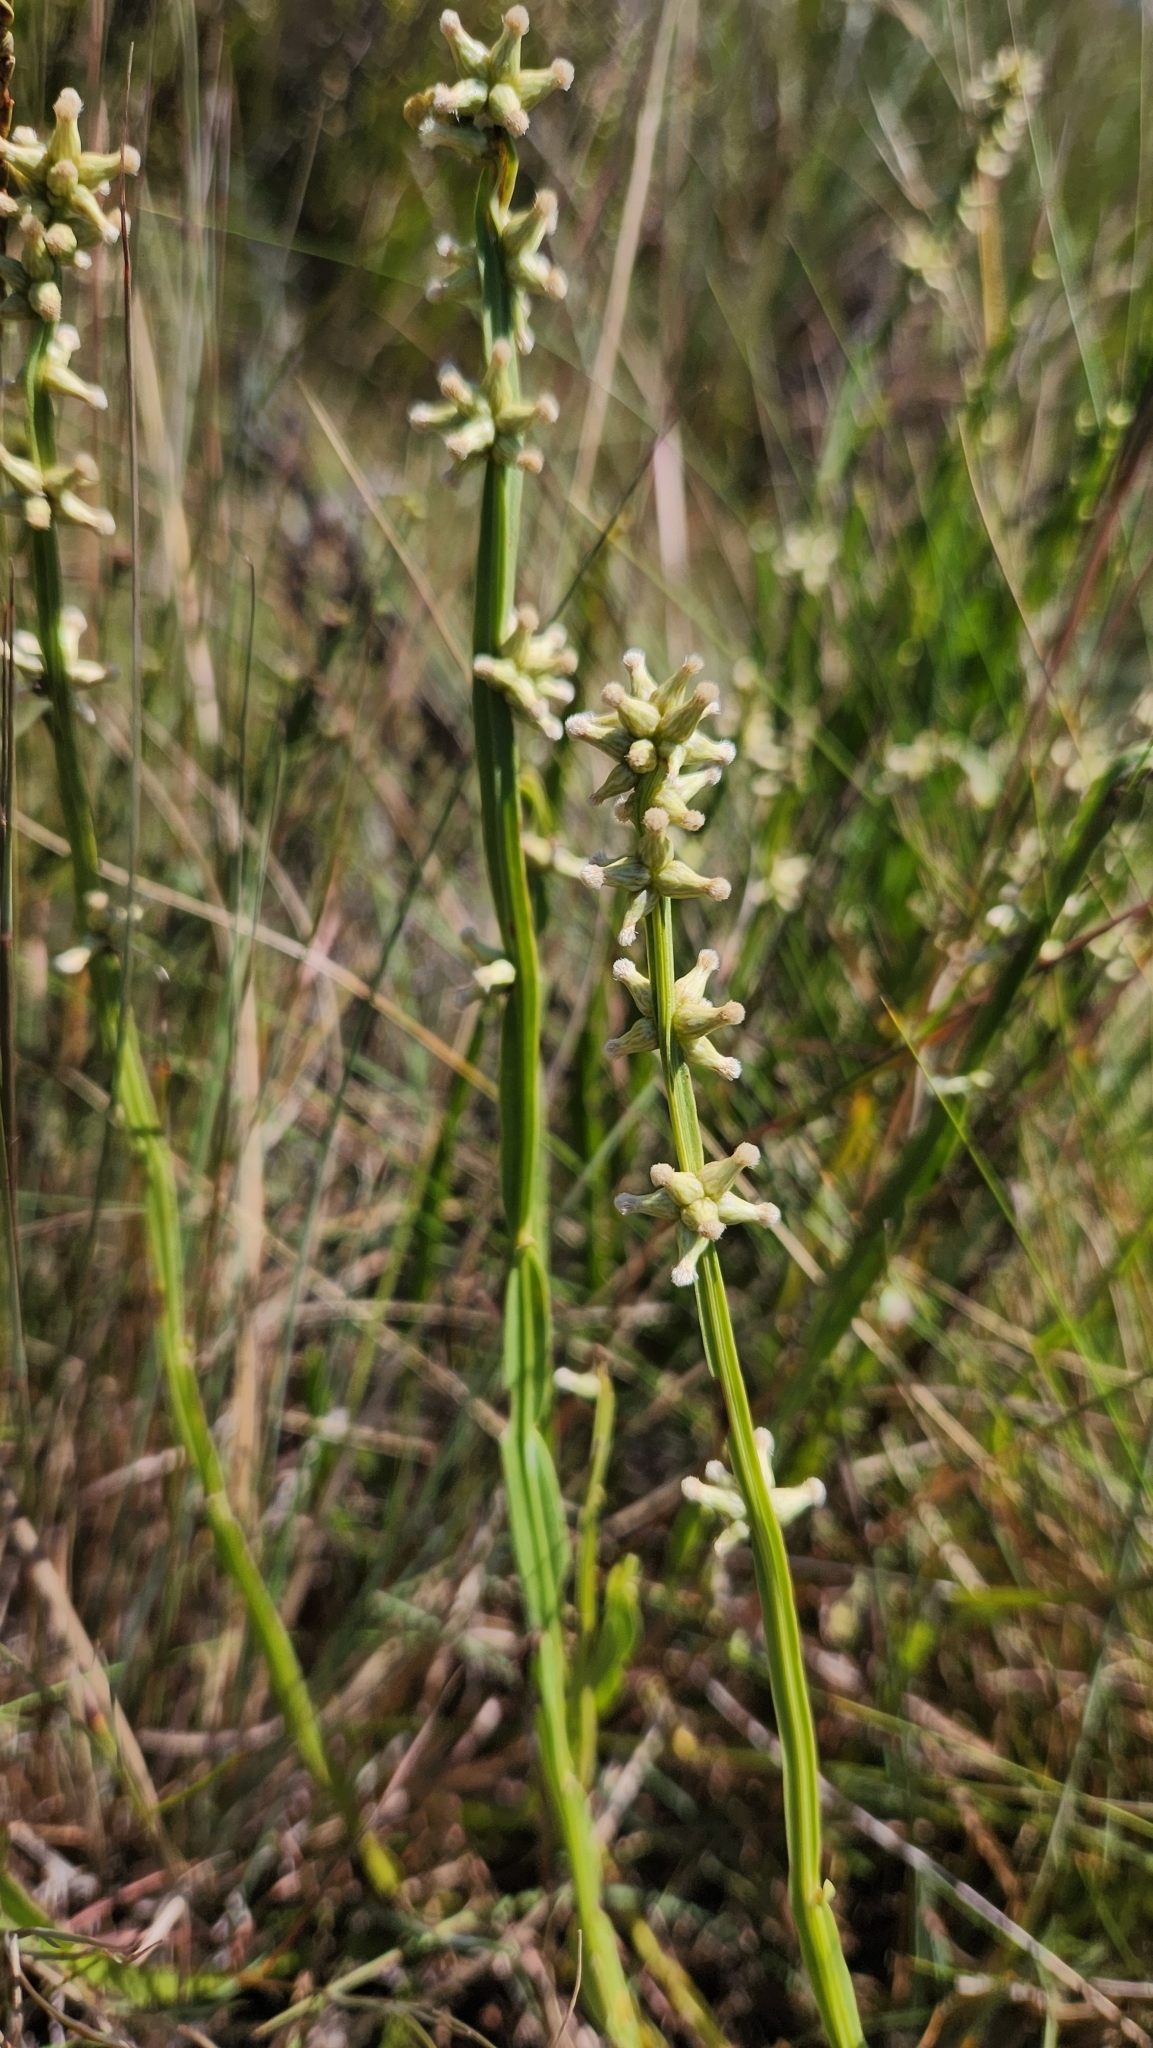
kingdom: Plantae
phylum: Tracheophyta
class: Magnoliopsida
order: Asterales
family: Asteraceae
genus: Baccharis
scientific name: Baccharis rectialata
